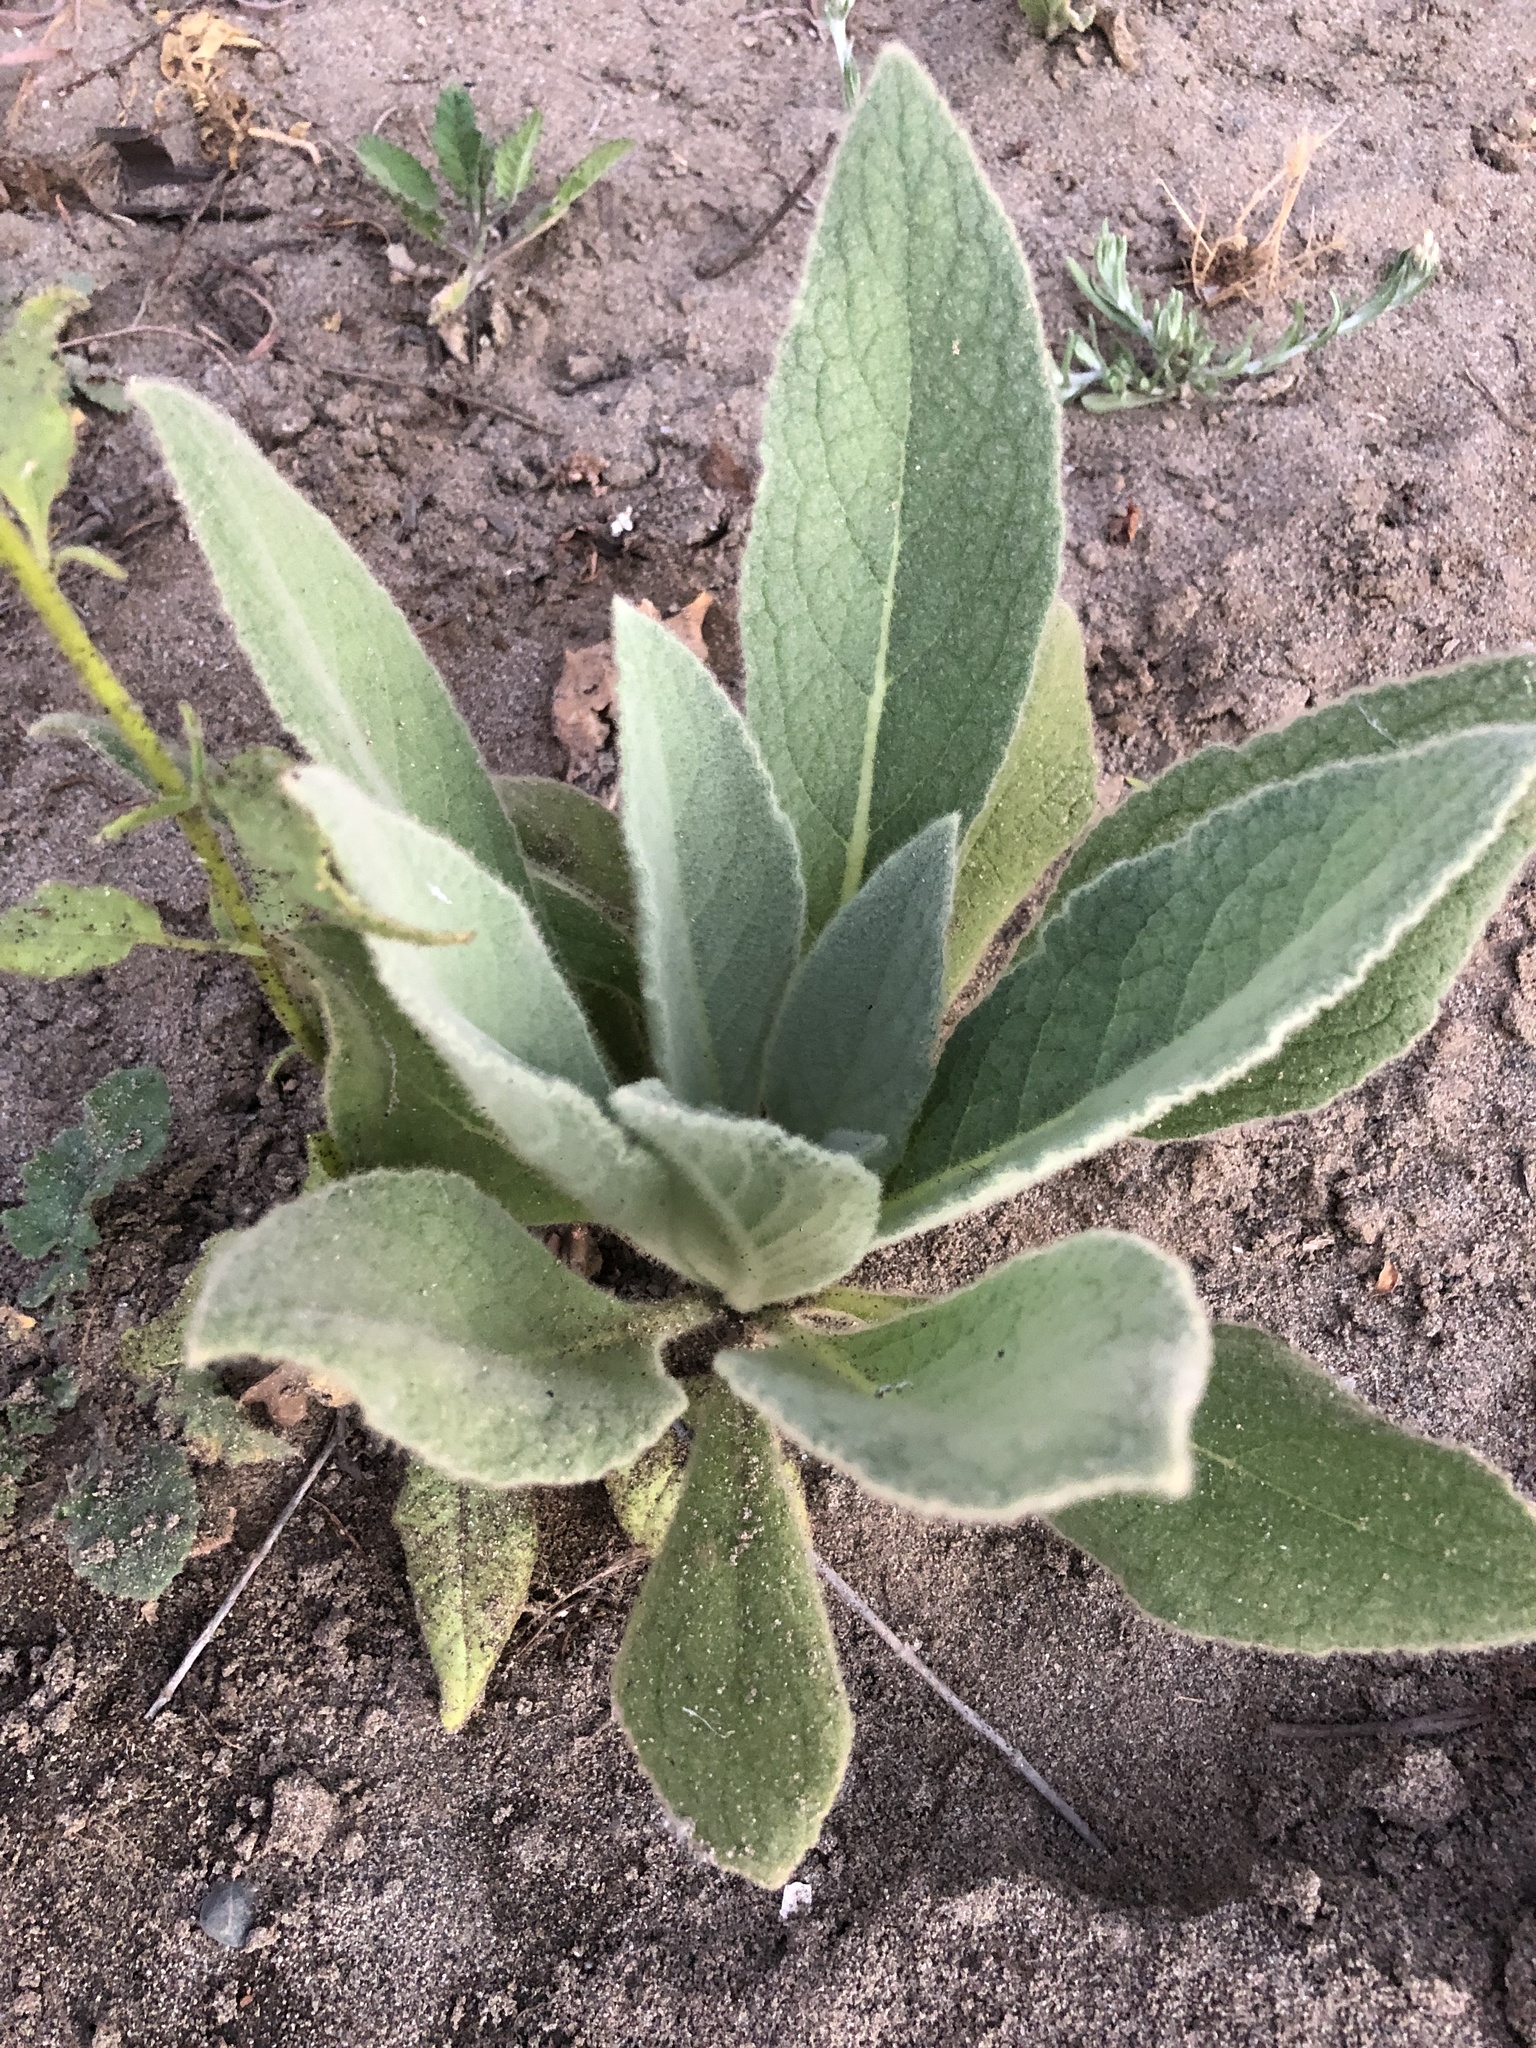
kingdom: Plantae
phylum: Tracheophyta
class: Magnoliopsida
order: Lamiales
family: Scrophulariaceae
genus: Verbascum
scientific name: Verbascum thapsus
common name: Common mullein
